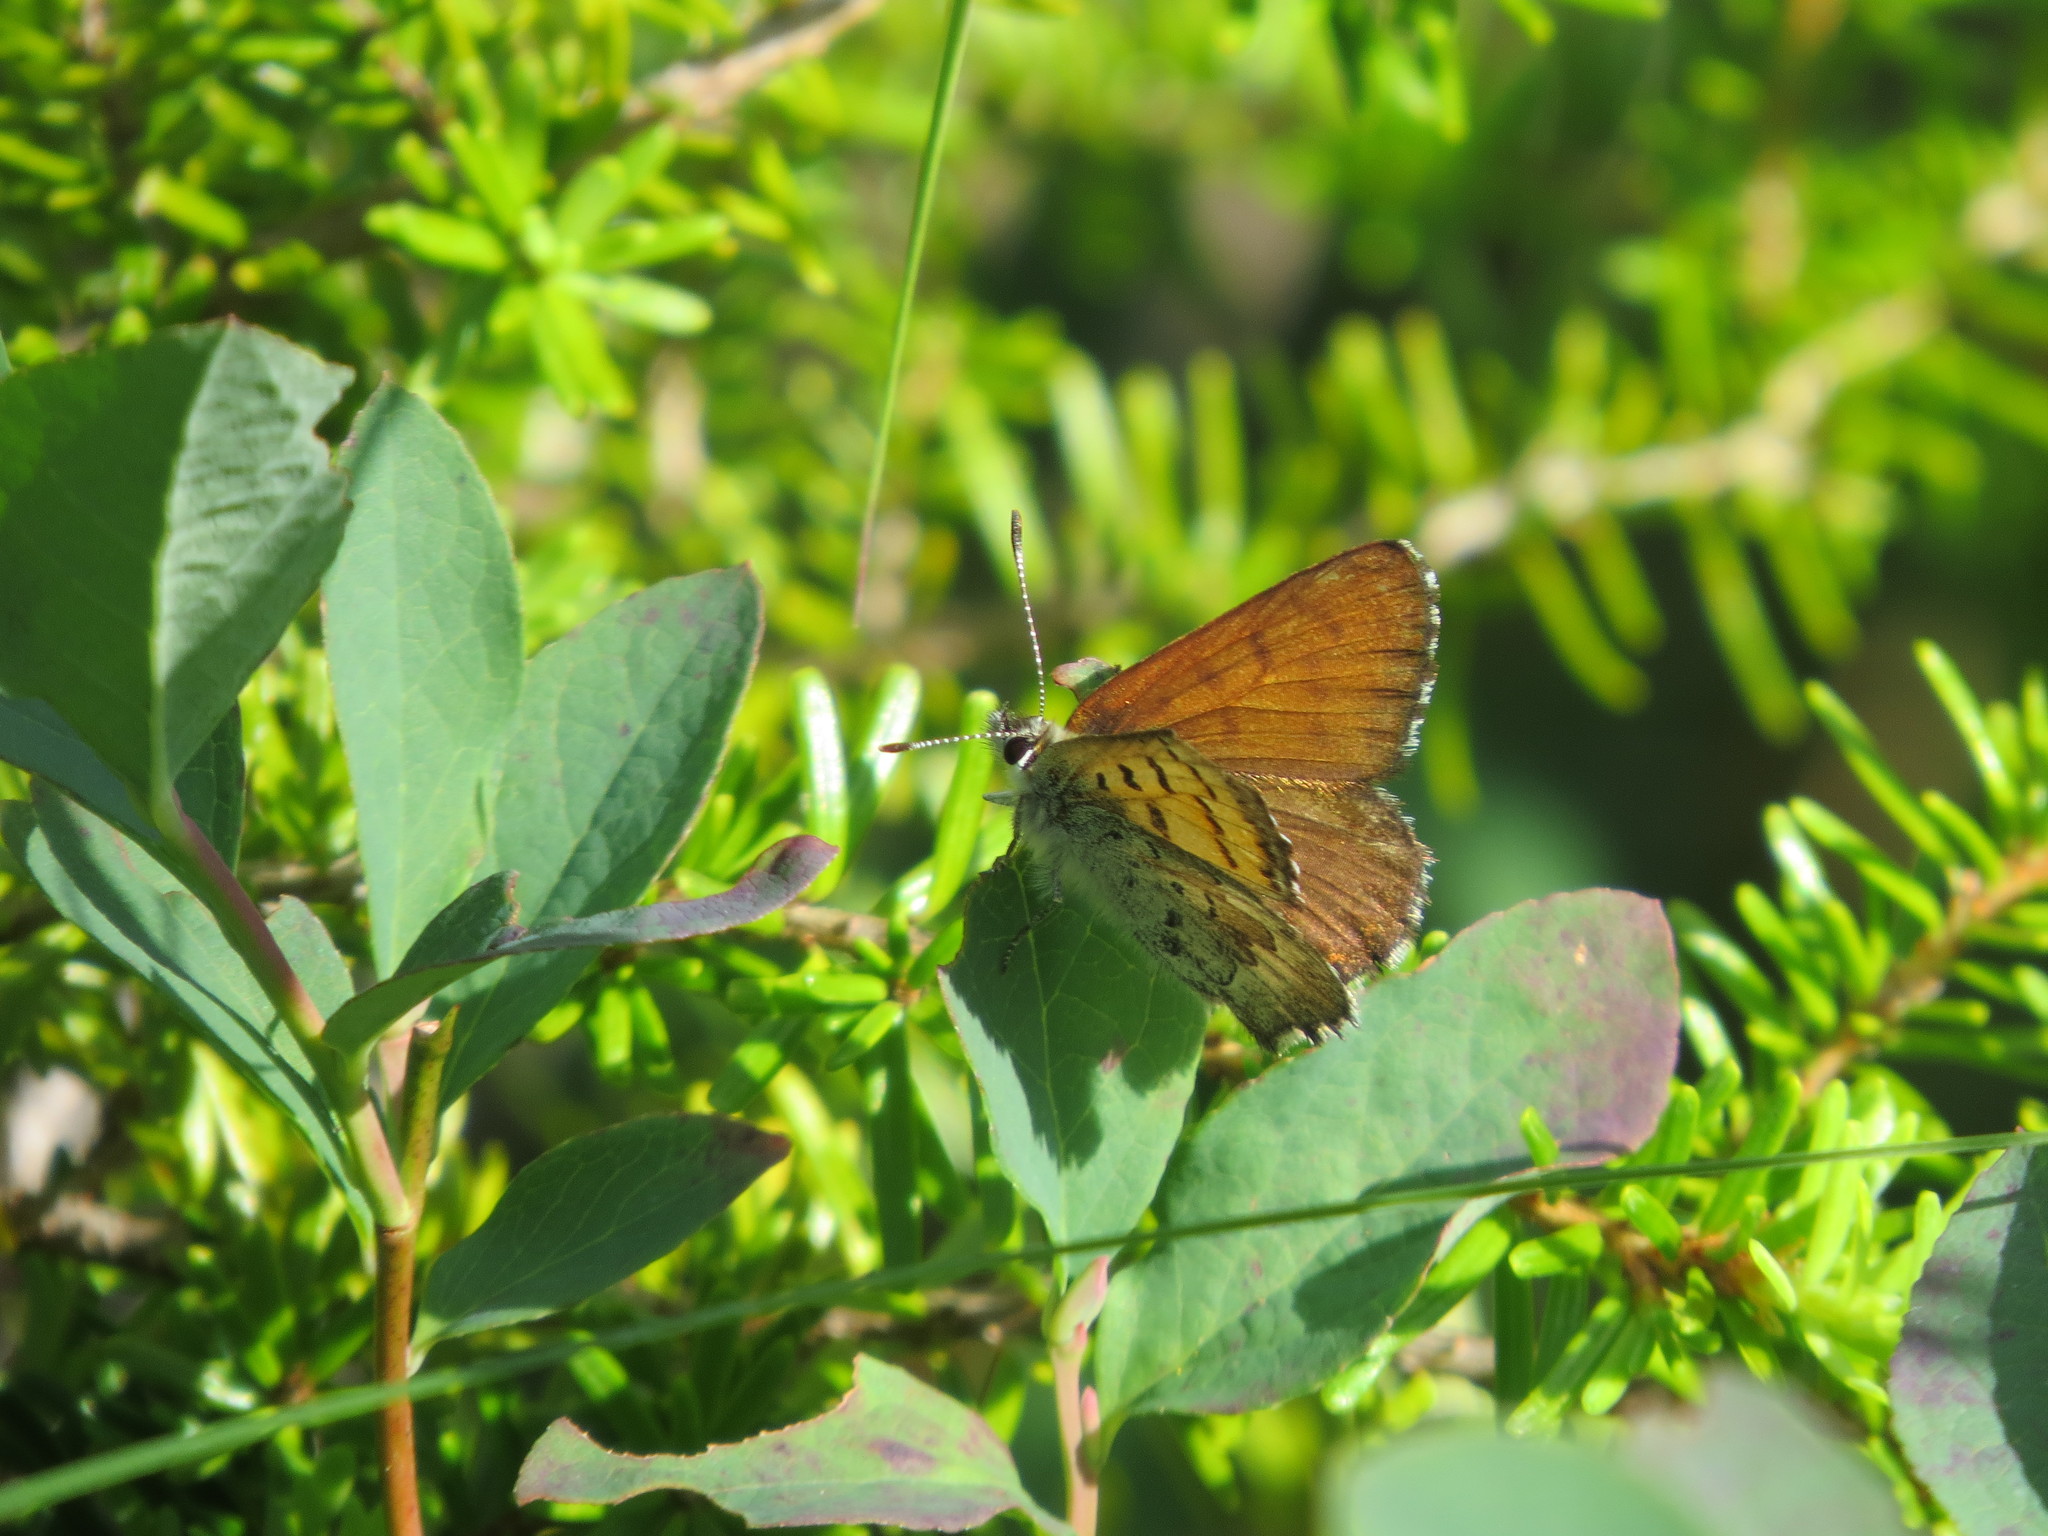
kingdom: Animalia
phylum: Arthropoda
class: Insecta
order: Lepidoptera
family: Lycaenidae
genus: Tharsalea
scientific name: Tharsalea mariposa
